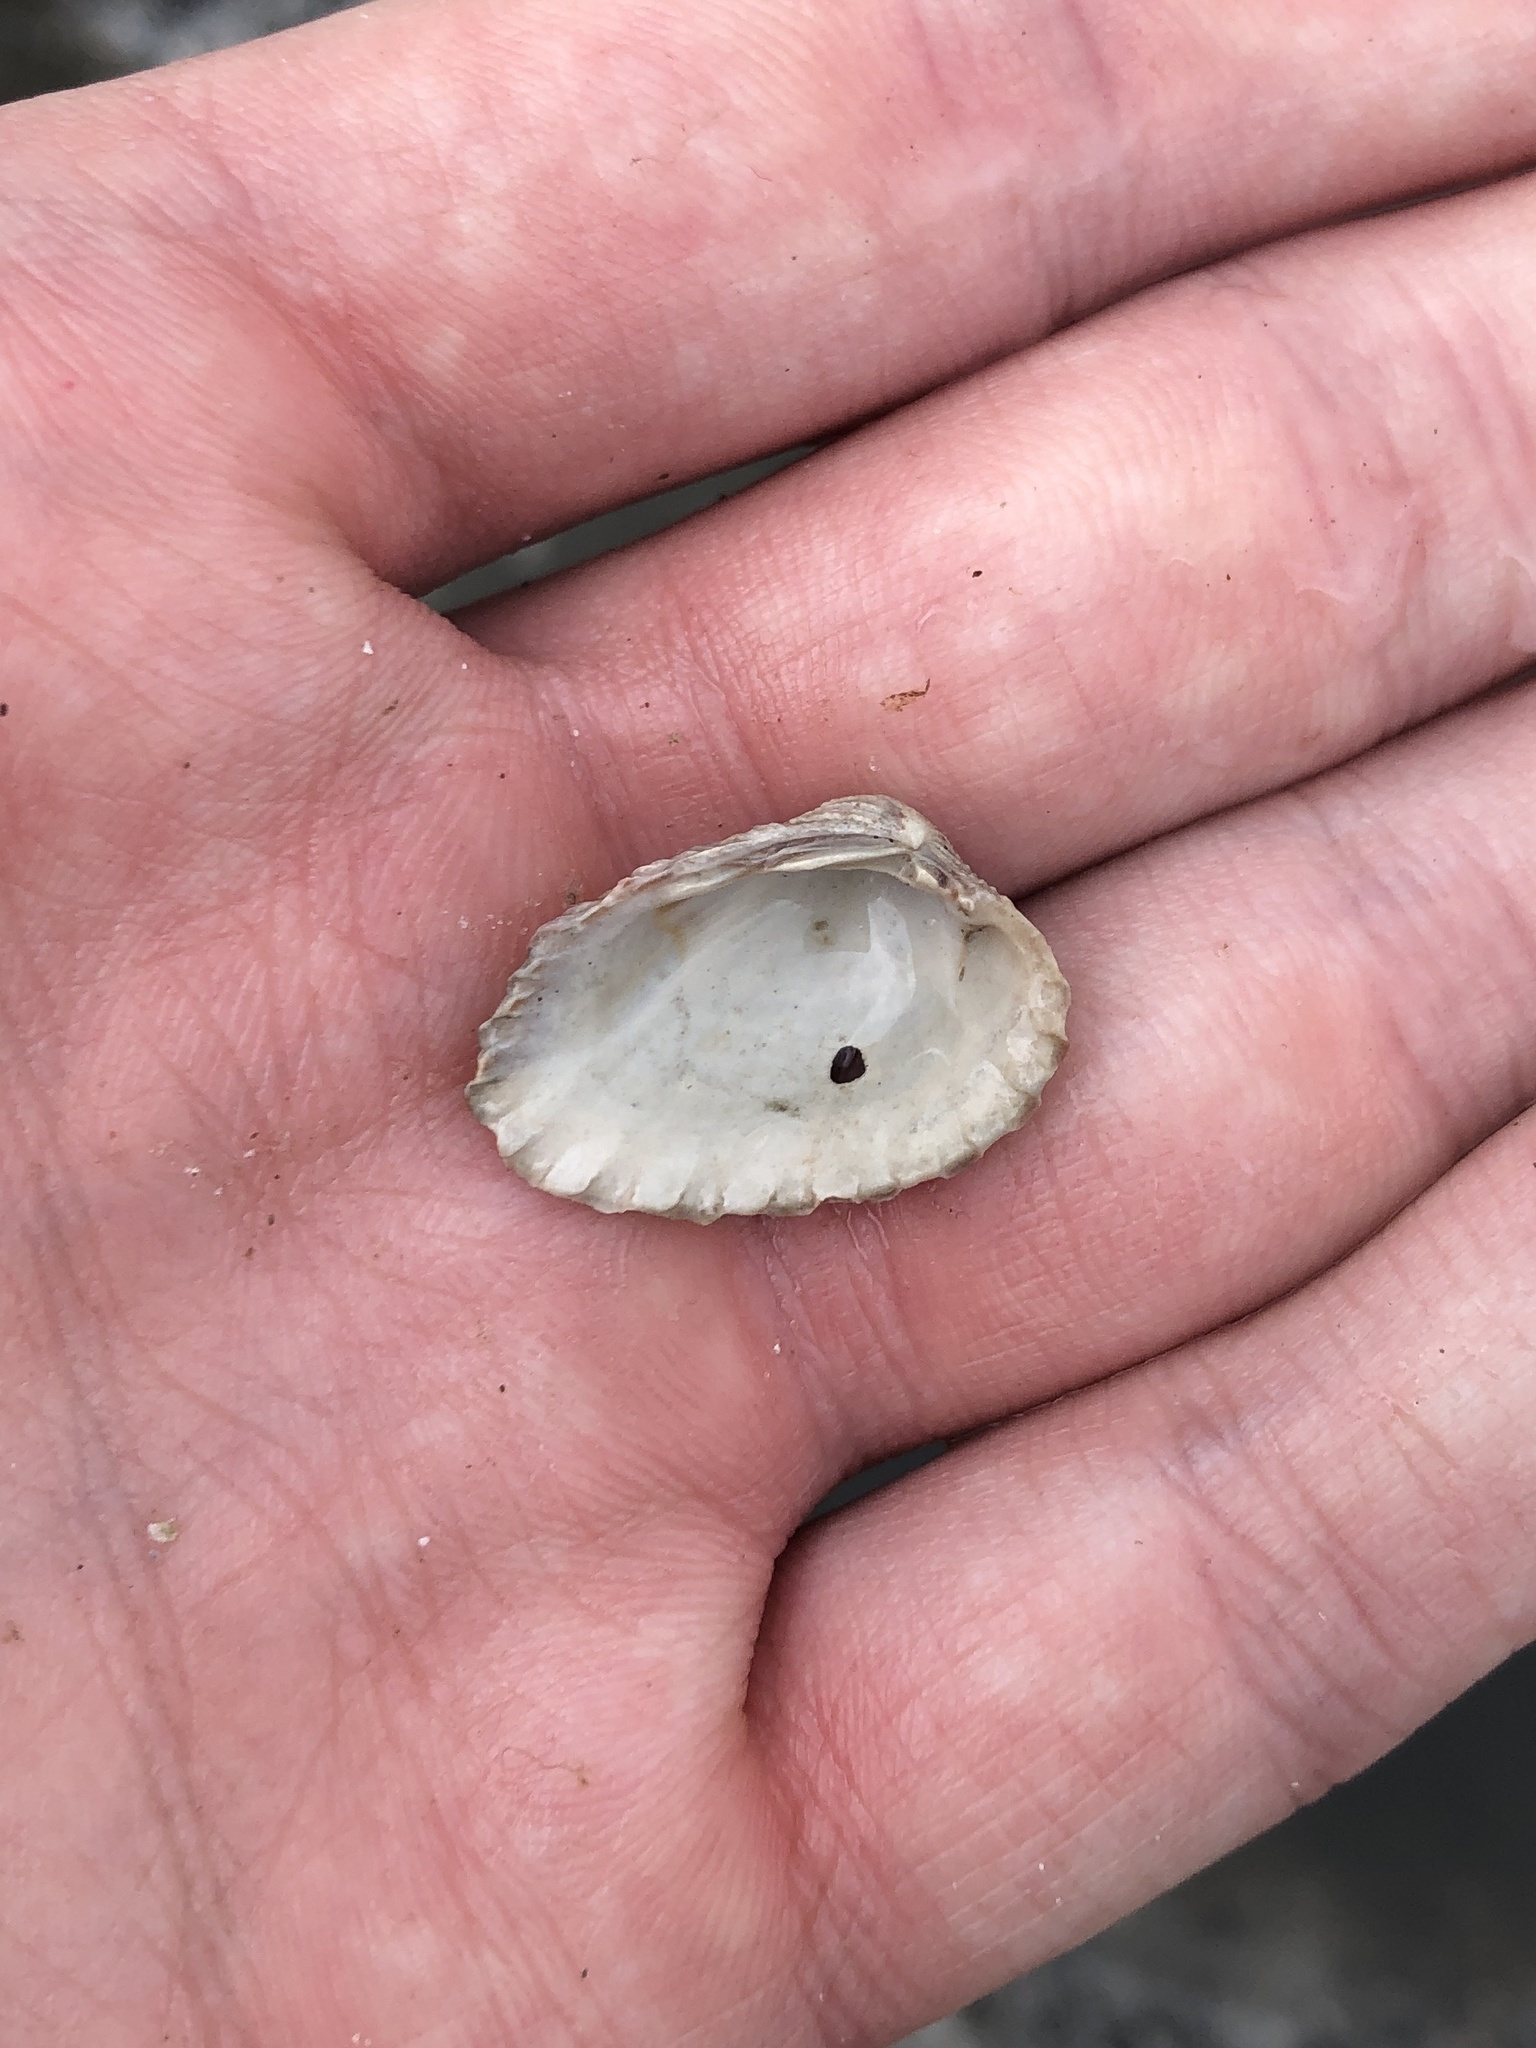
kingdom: Animalia
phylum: Mollusca
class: Bivalvia
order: Carditida
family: Carditidae
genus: Cardites
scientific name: Cardites floridanus
